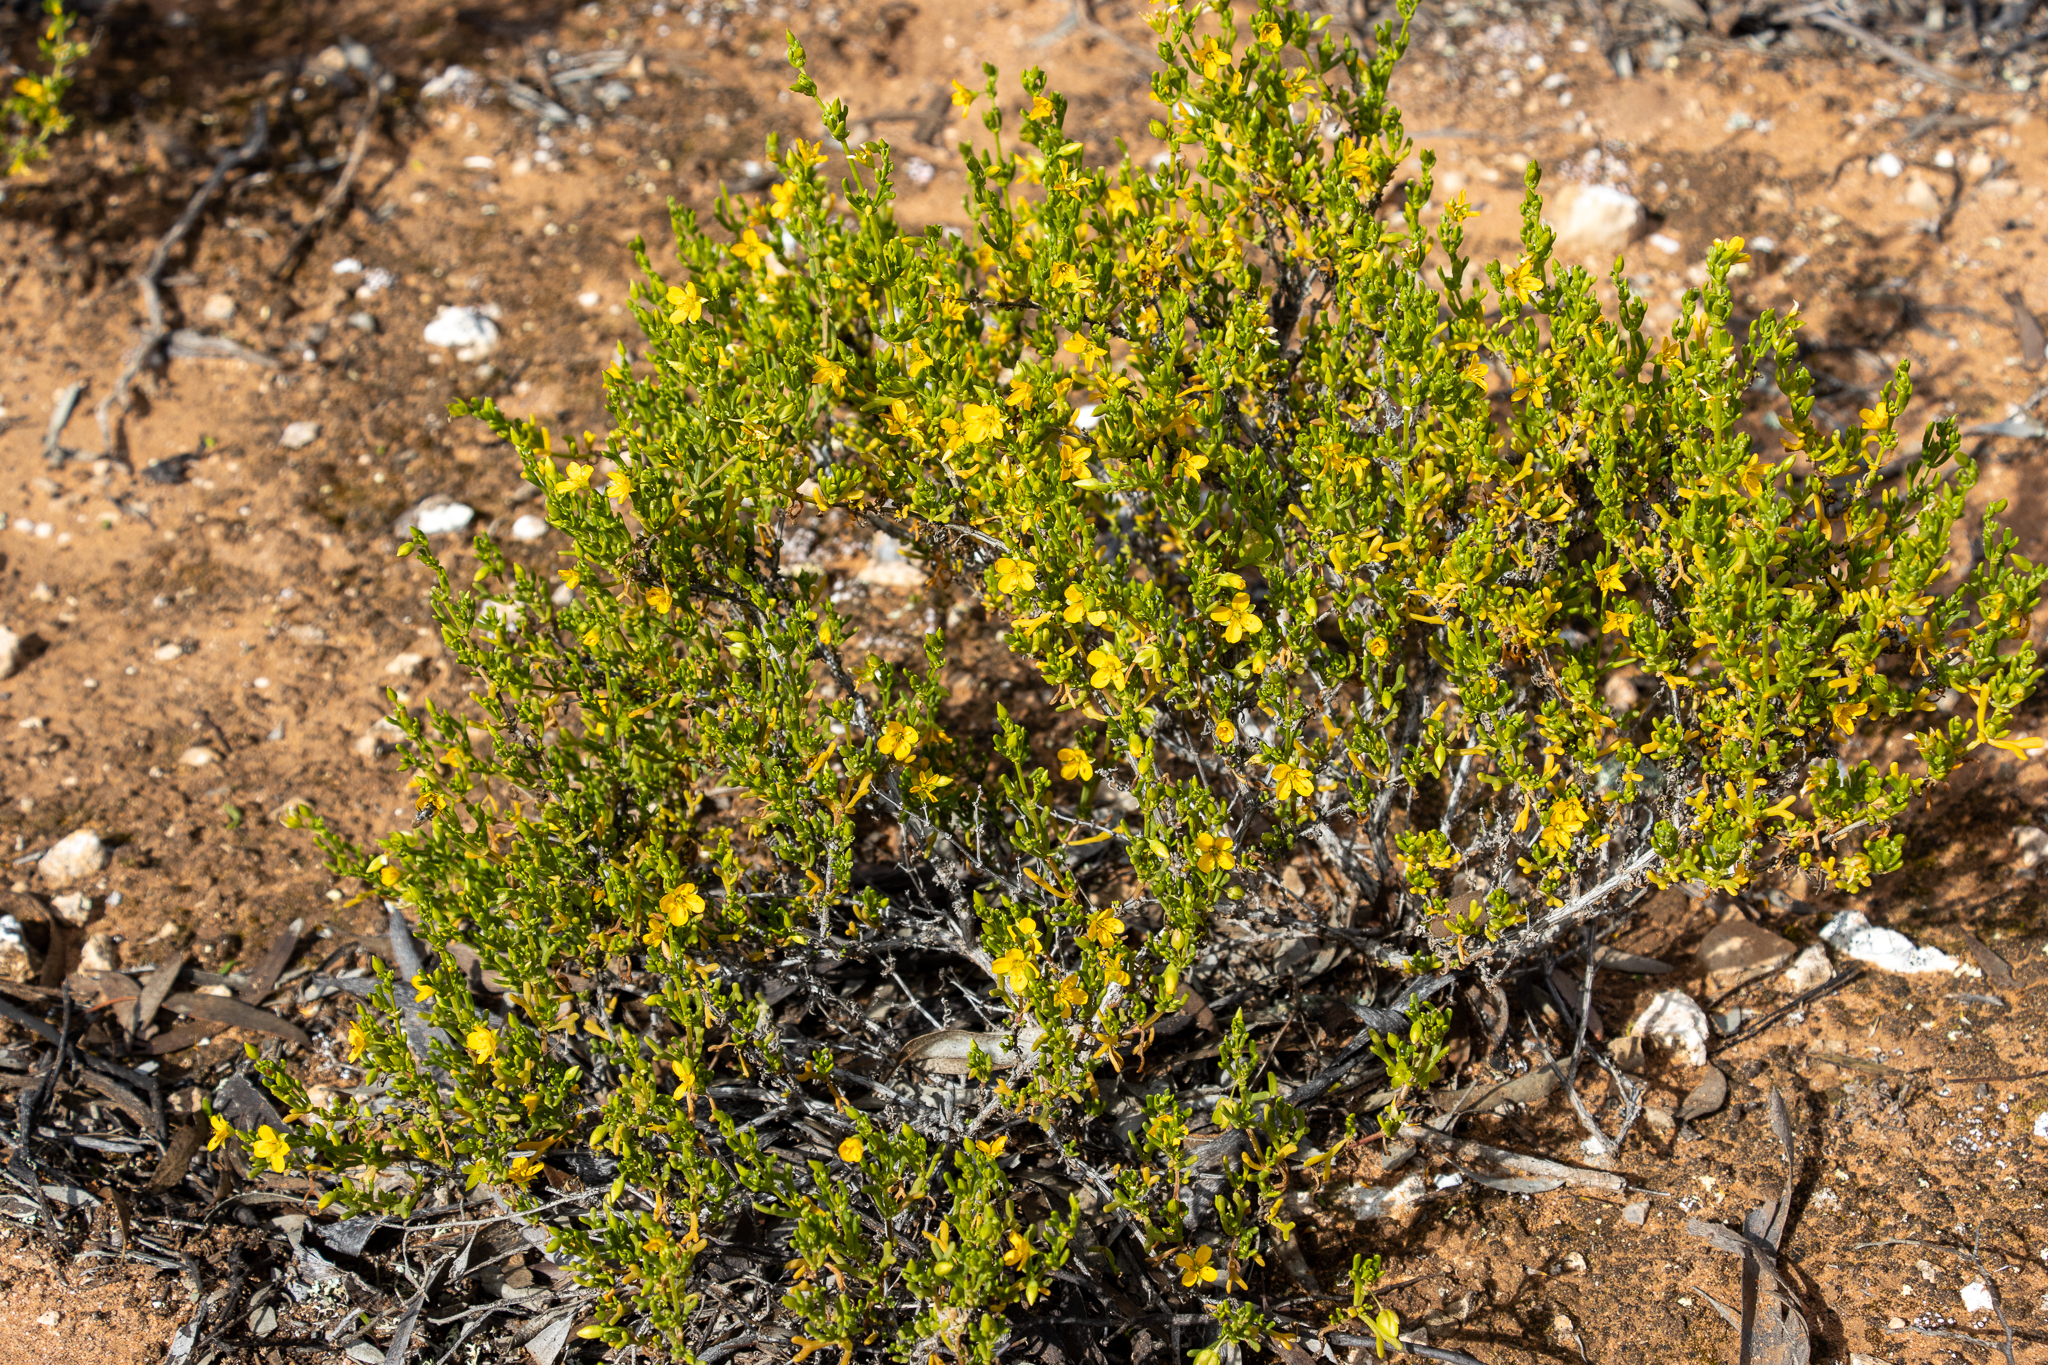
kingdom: Plantae
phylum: Tracheophyta
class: Magnoliopsida
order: Zygophyllales
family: Zygophyllaceae
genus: Roepera
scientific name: Roepera aurantiaca
